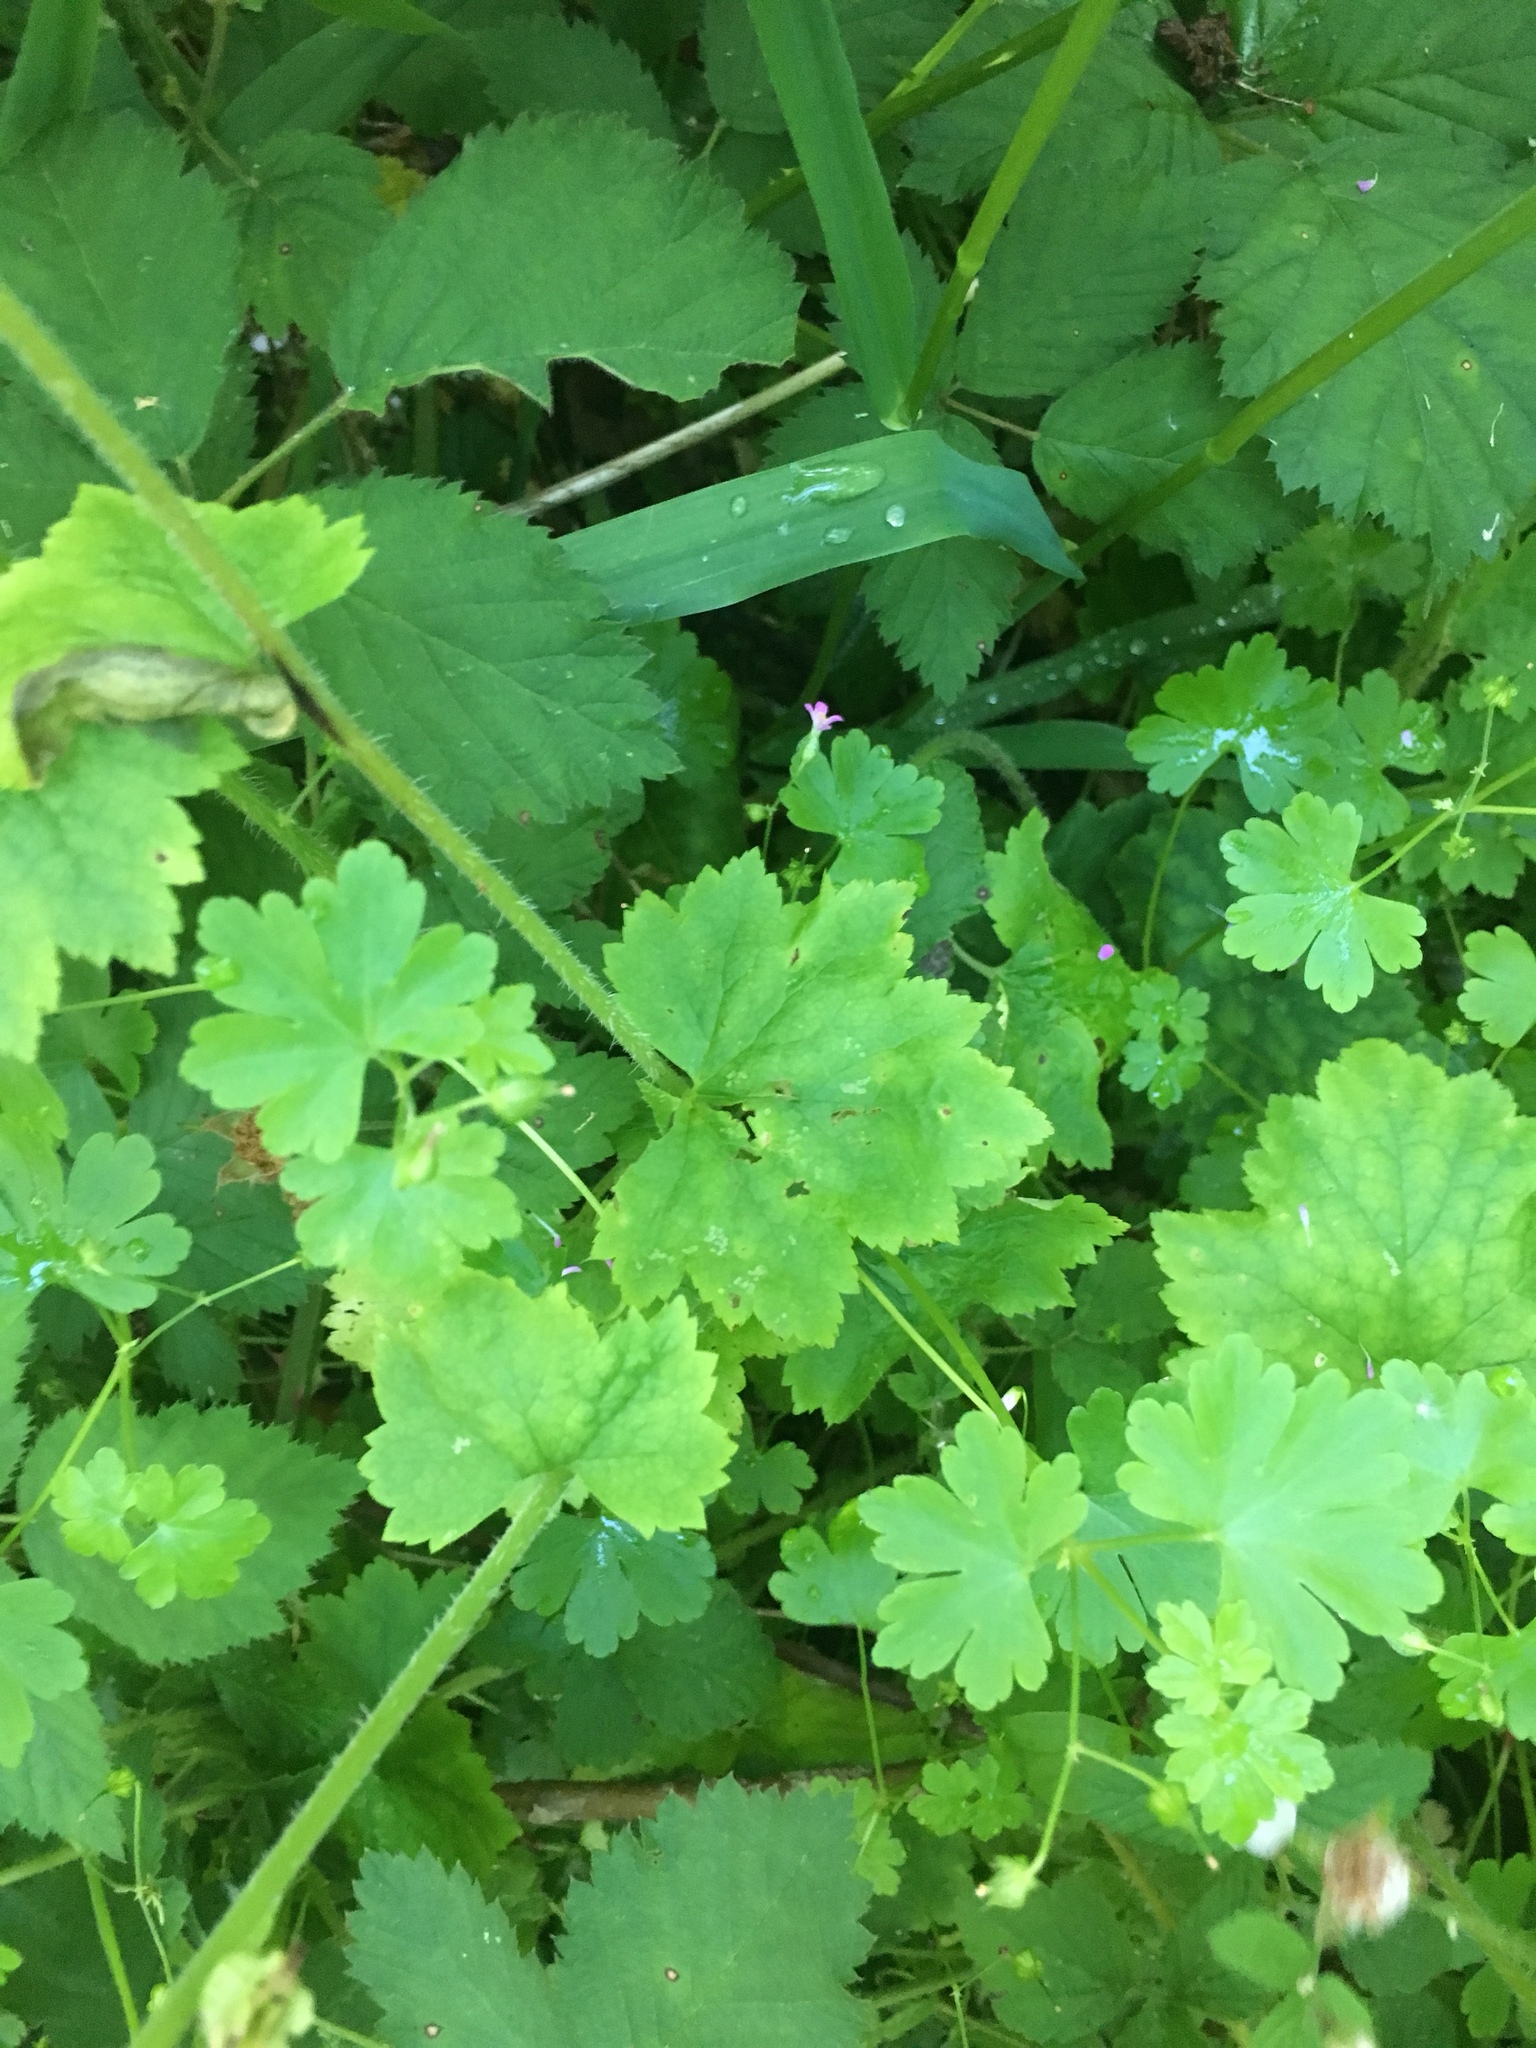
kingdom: Plantae
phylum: Tracheophyta
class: Magnoliopsida
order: Saxifragales
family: Saxifragaceae
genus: Tellima
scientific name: Tellima grandiflora
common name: Fringecups
